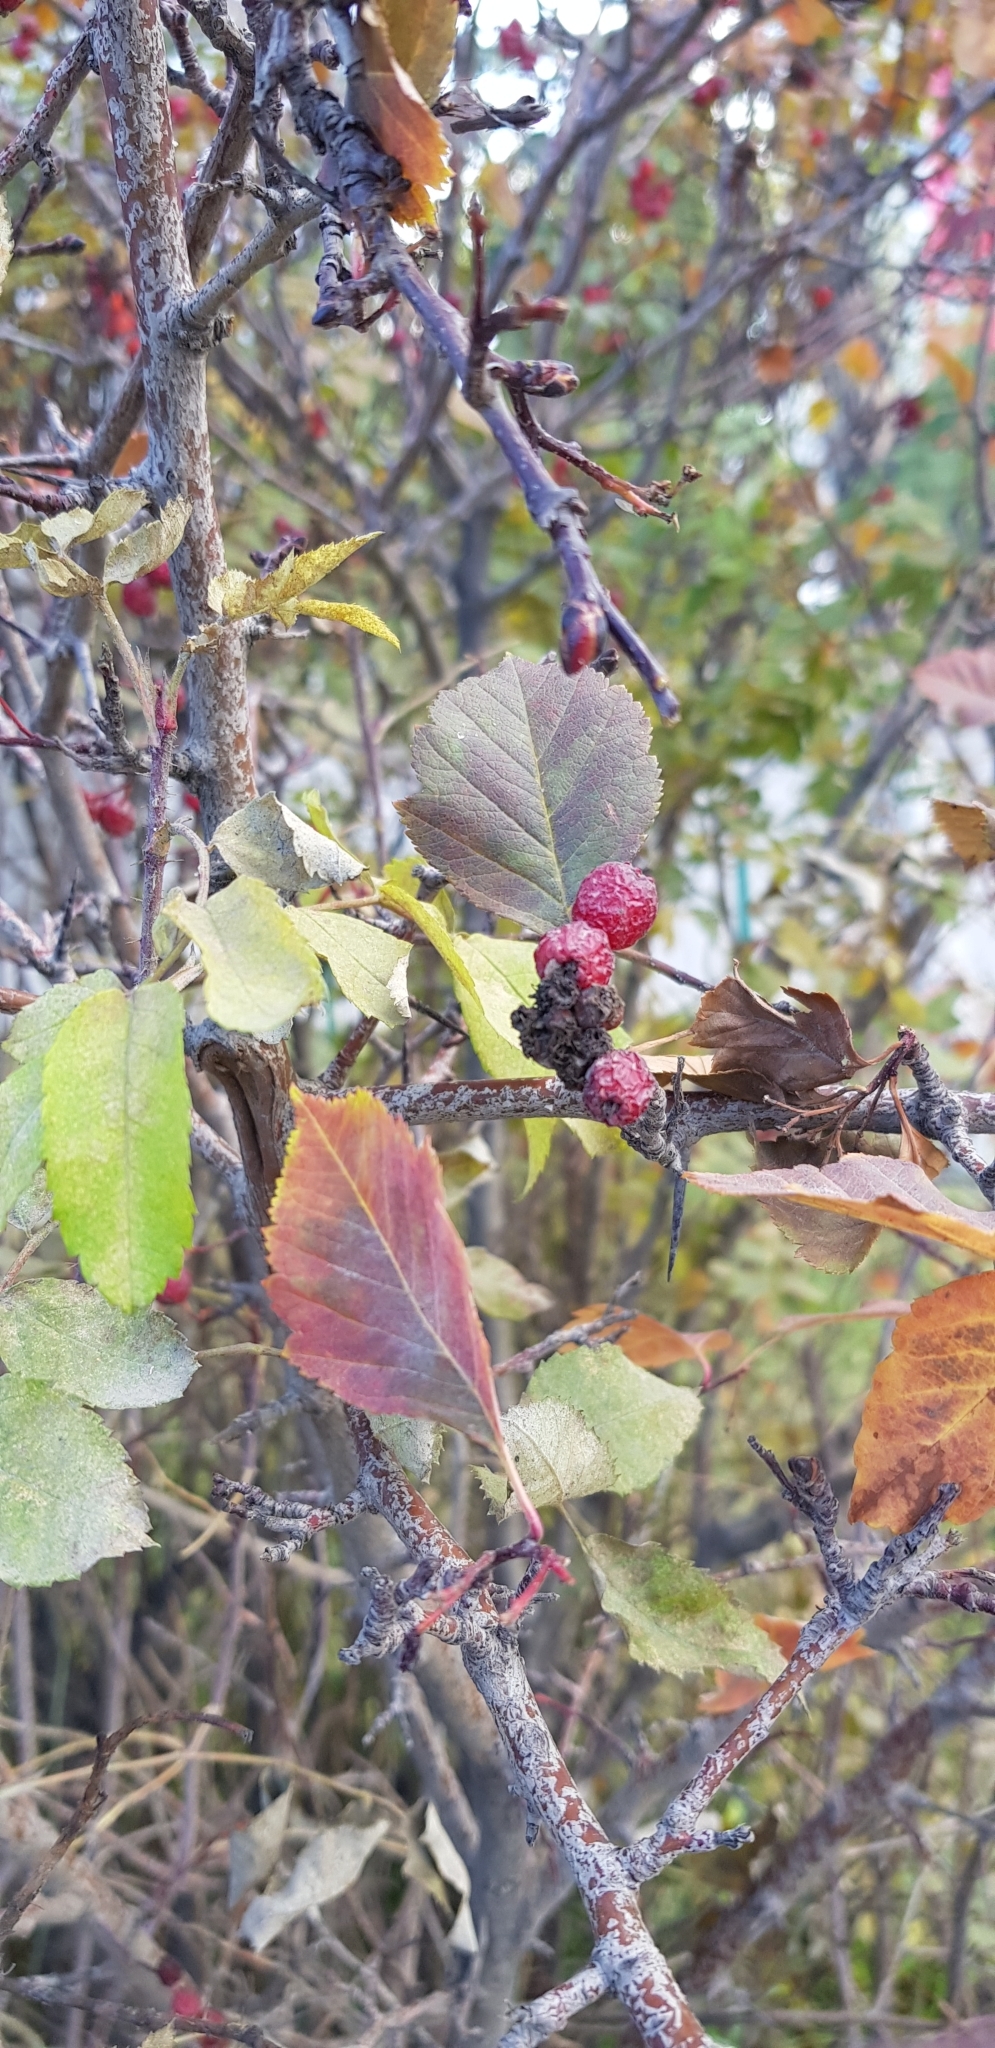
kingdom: Plantae
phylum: Tracheophyta
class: Magnoliopsida
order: Rosales
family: Rosaceae
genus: Crataegus
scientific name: Crataegus sanguinea
